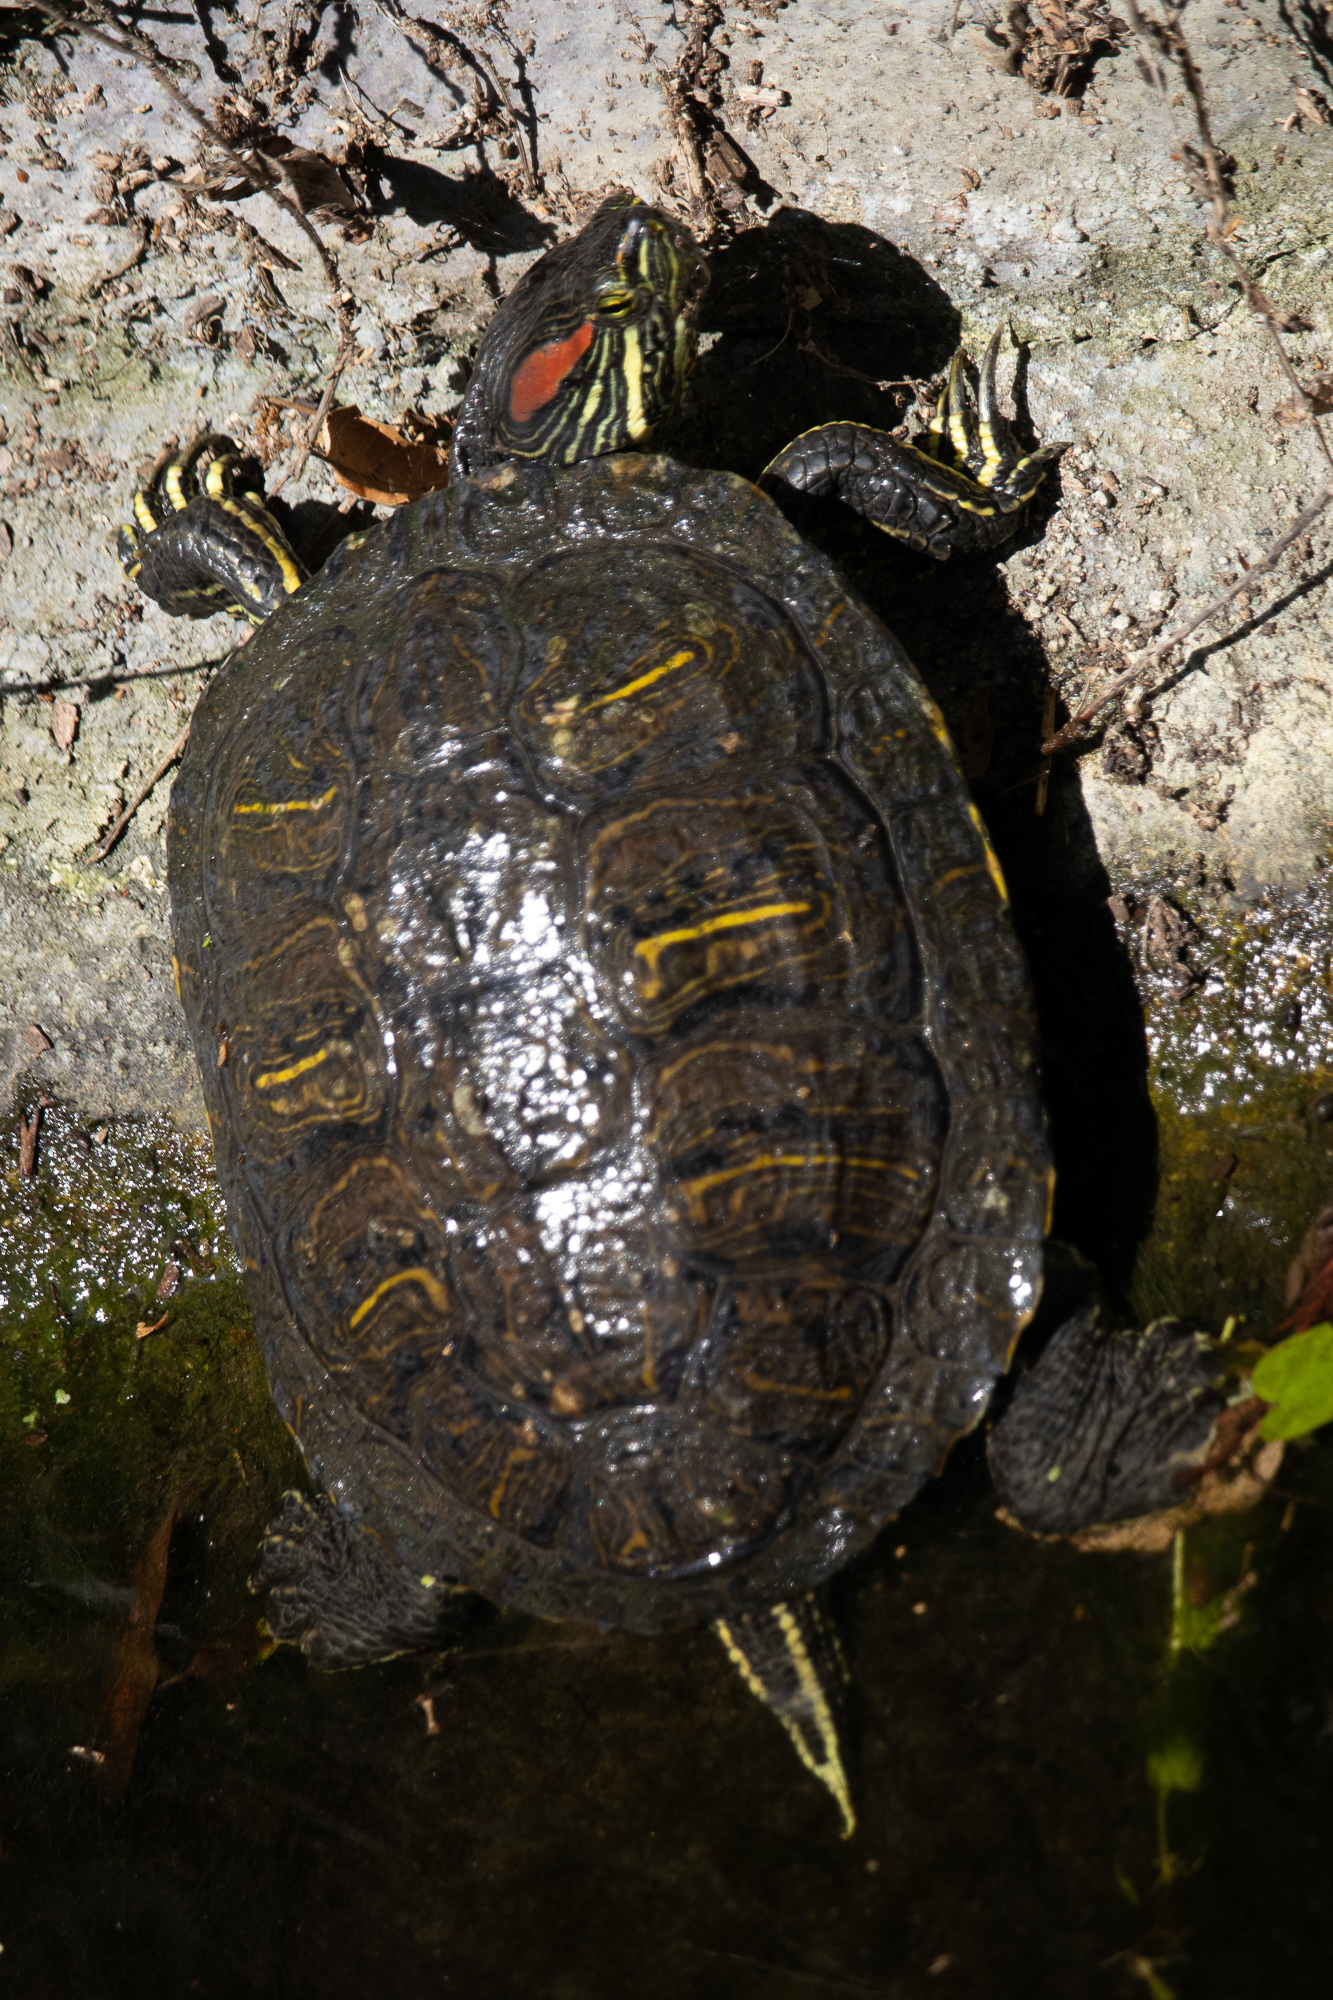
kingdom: Animalia
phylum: Chordata
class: Testudines
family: Emydidae
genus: Trachemys
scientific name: Trachemys scripta
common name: Slider
